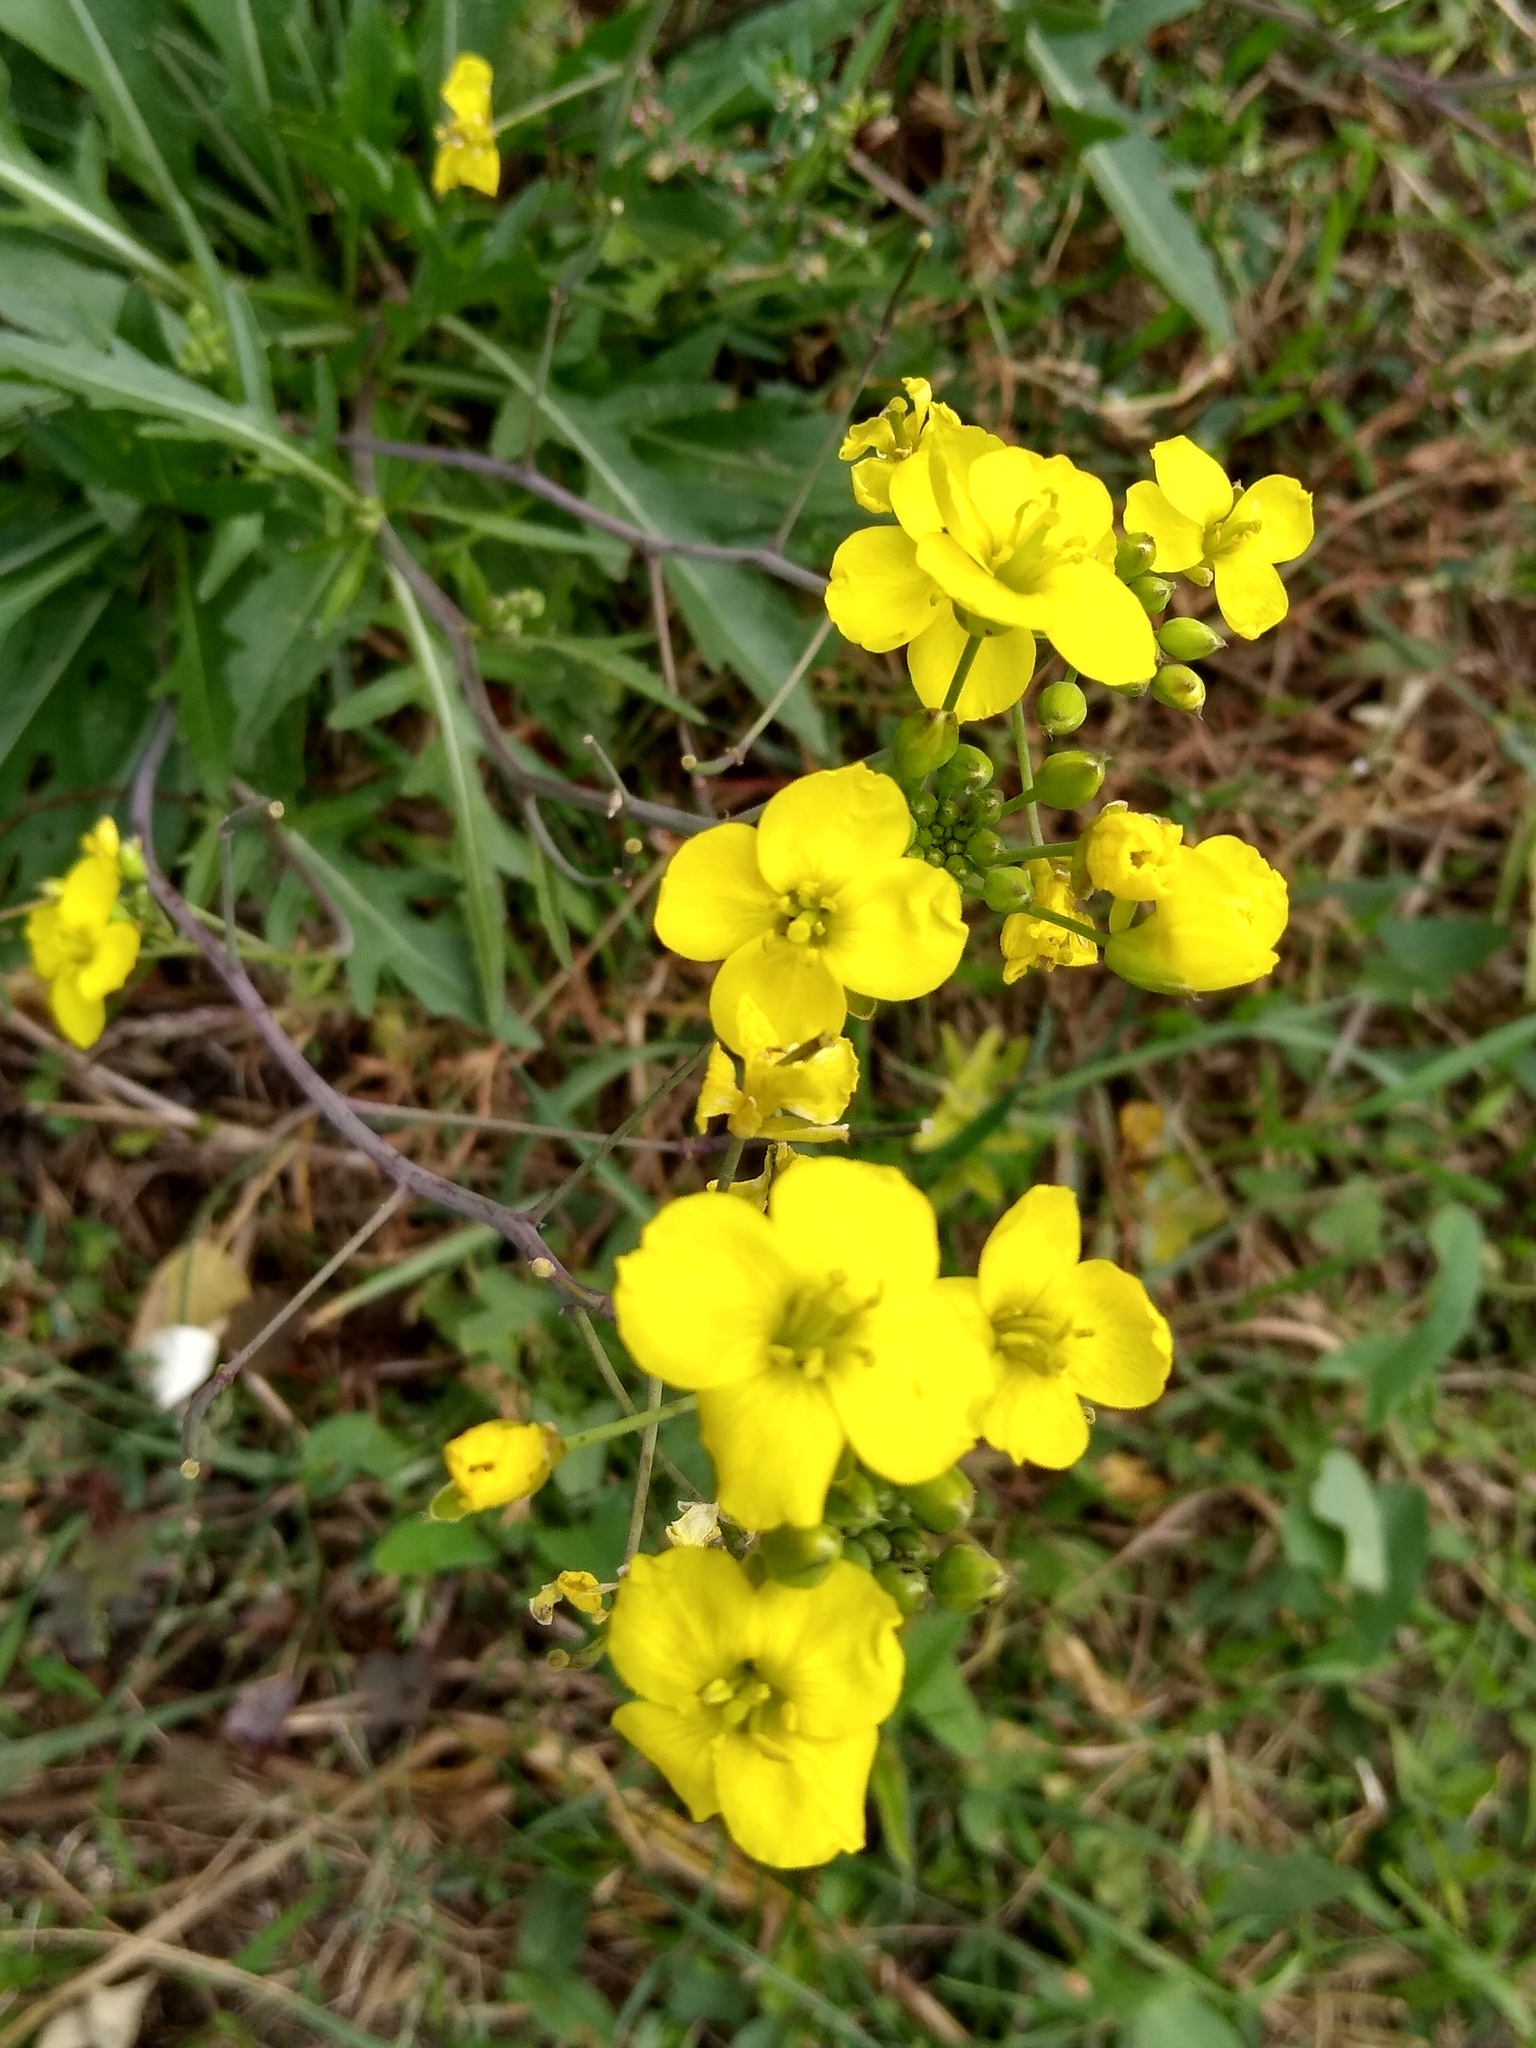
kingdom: Plantae
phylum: Tracheophyta
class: Magnoliopsida
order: Brassicales
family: Brassicaceae
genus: Diplotaxis
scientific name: Diplotaxis tenuifolia
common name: Perennial wall-rocket
